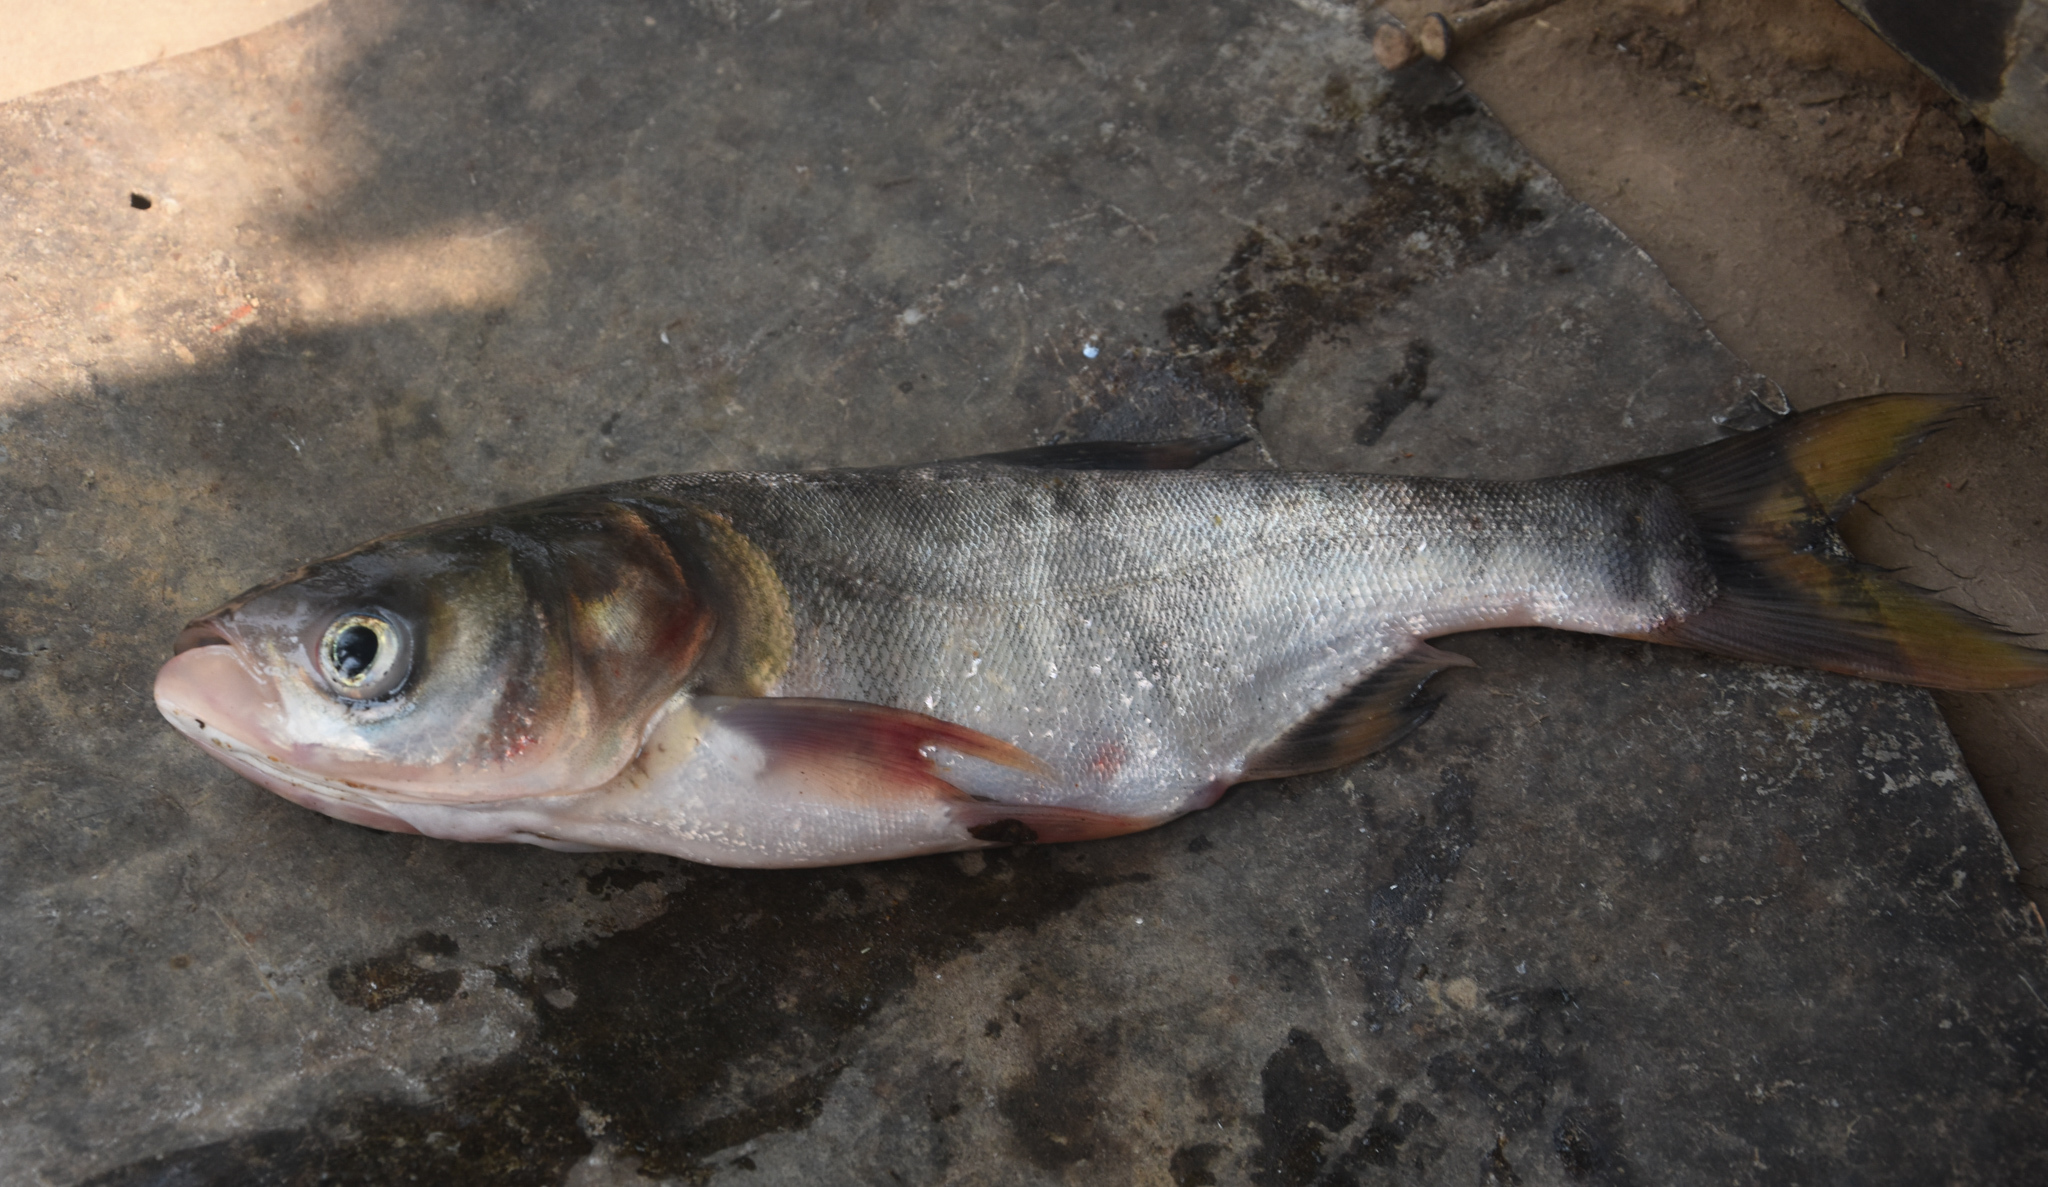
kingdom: Animalia
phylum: Chordata
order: Cypriniformes
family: Cyprinidae
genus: Hypophthalmichthys
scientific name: Hypophthalmichthys nobilis
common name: Bighead carp
